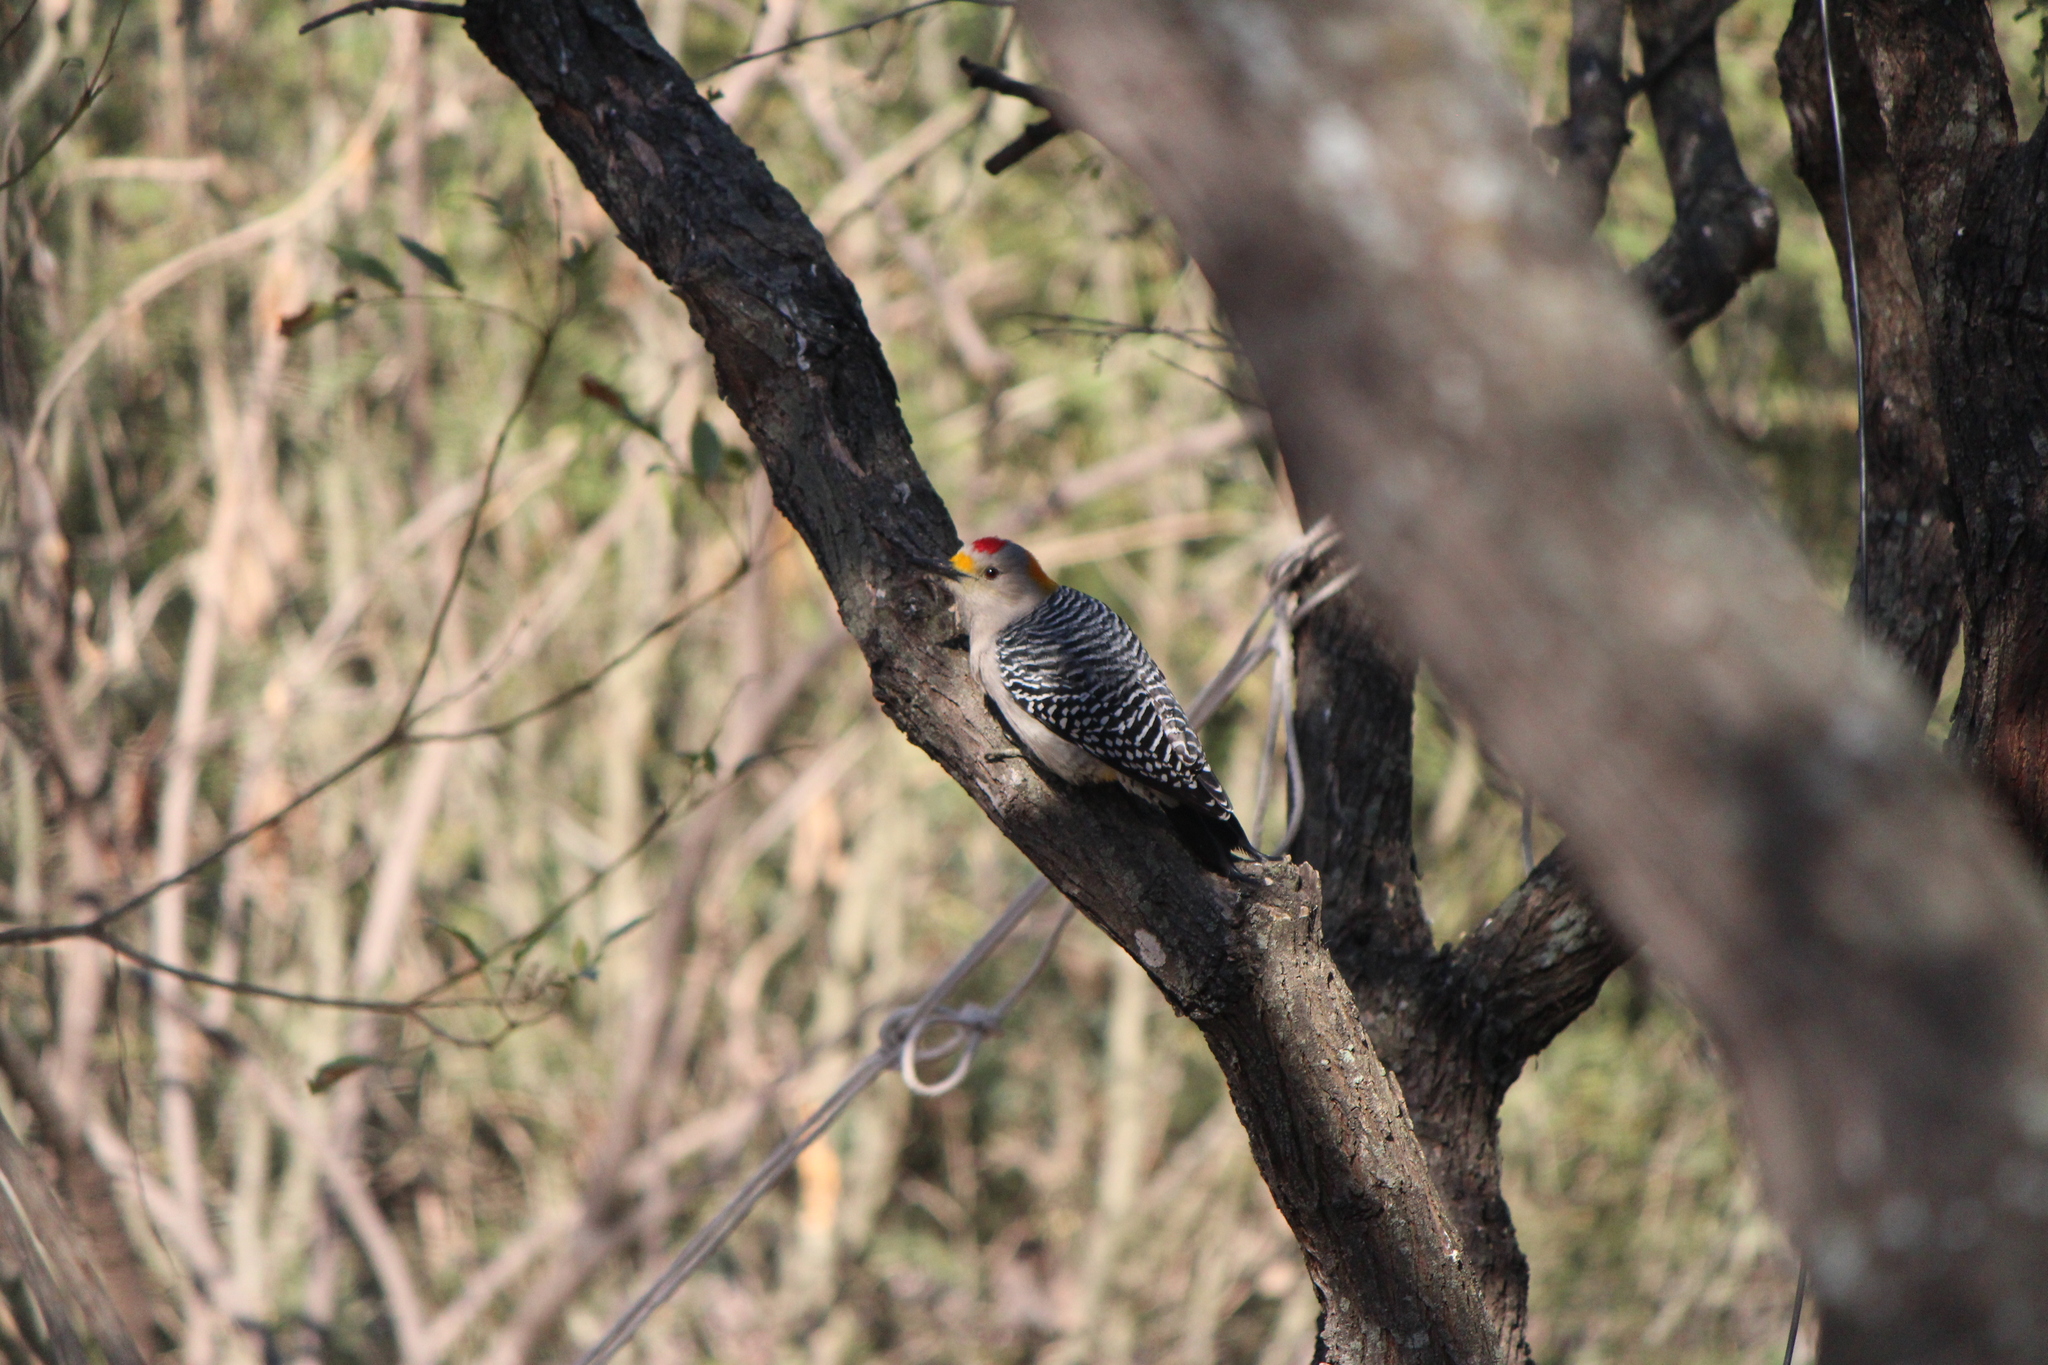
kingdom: Animalia
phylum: Chordata
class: Aves
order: Piciformes
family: Picidae
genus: Melanerpes
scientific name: Melanerpes aurifrons
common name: Golden-fronted woodpecker
